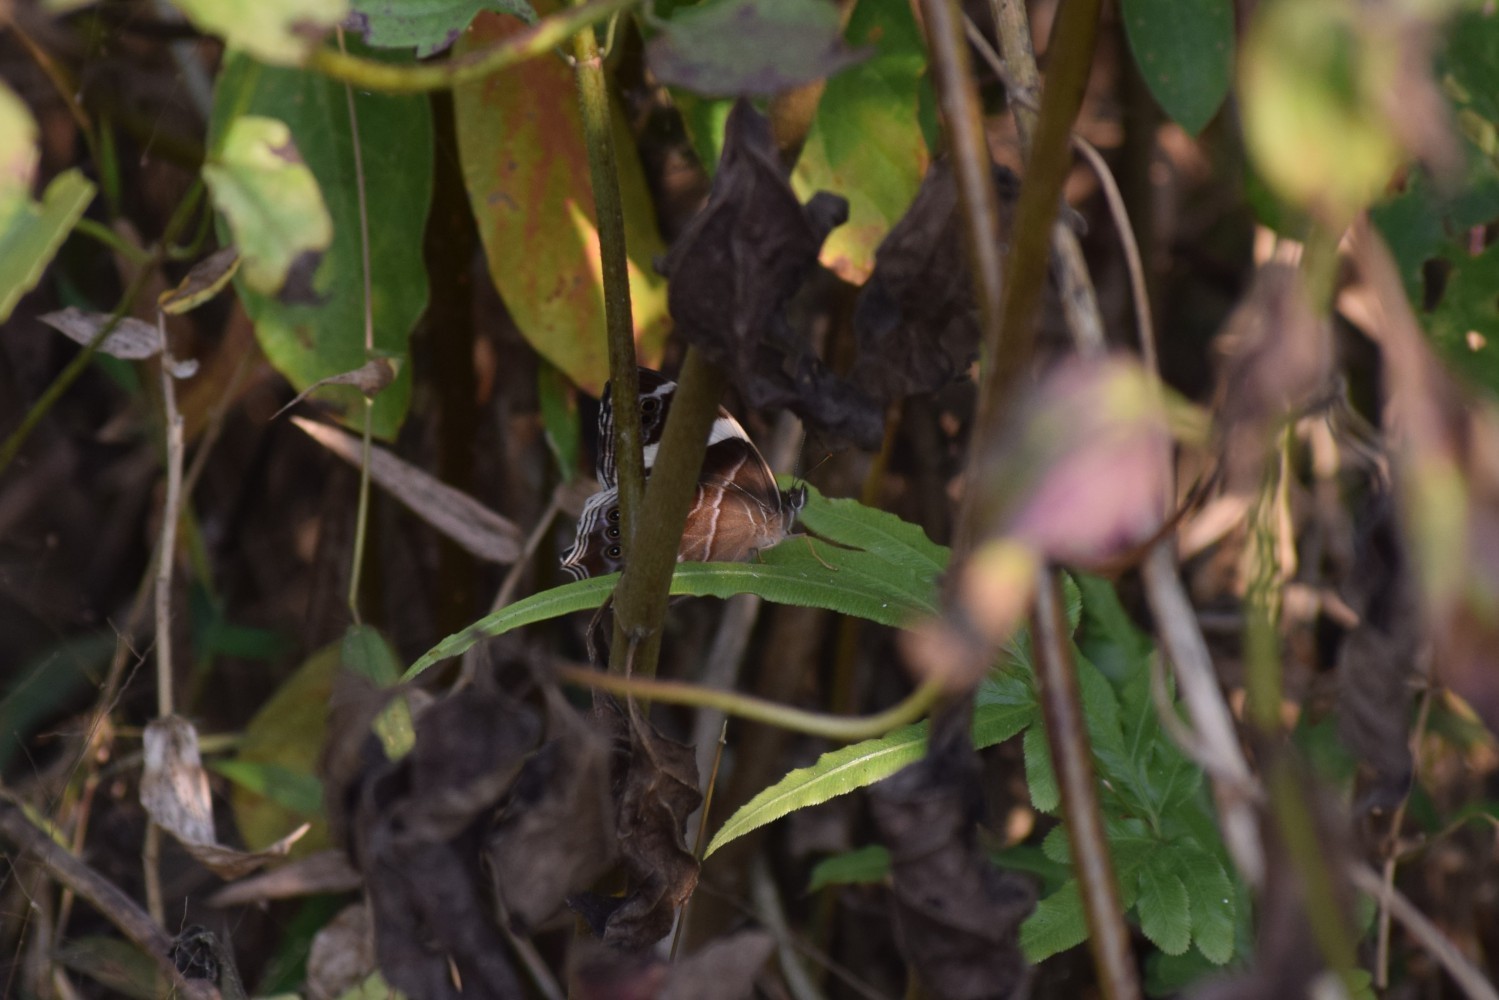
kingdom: Animalia
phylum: Arthropoda
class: Insecta
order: Lepidoptera
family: Nymphalidae
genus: Lethe
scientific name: Lethe confusa
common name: Banded treebrown
